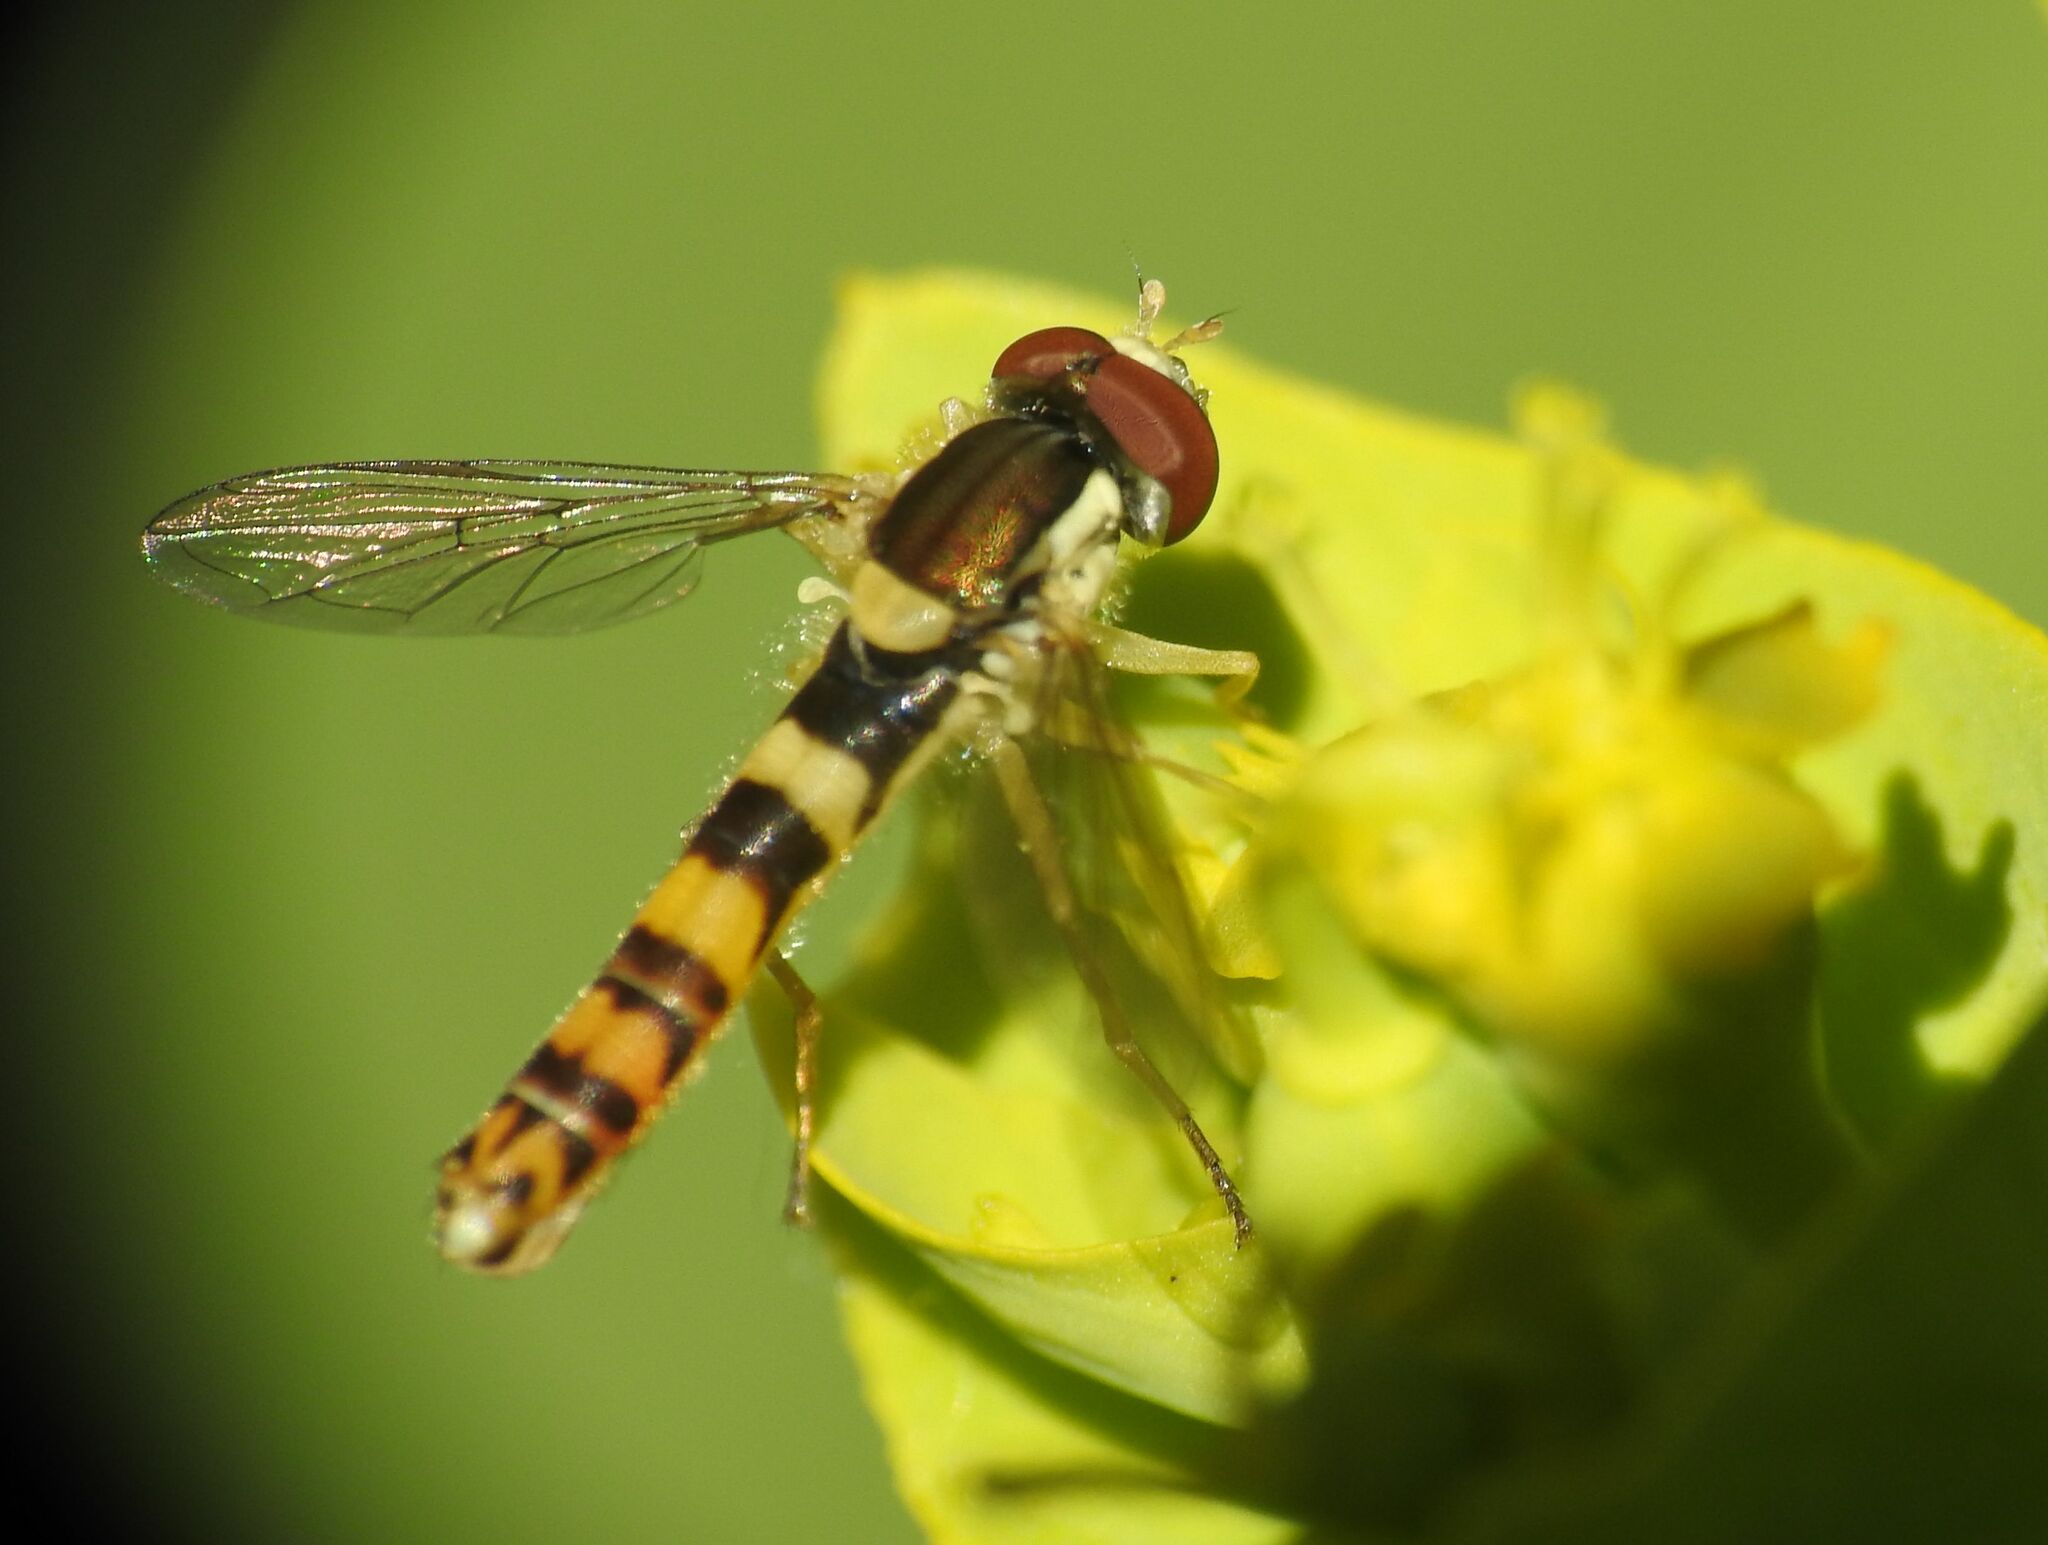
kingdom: Animalia
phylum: Arthropoda
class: Insecta
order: Diptera
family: Syrphidae
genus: Sphaerophoria
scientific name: Sphaerophoria scripta
